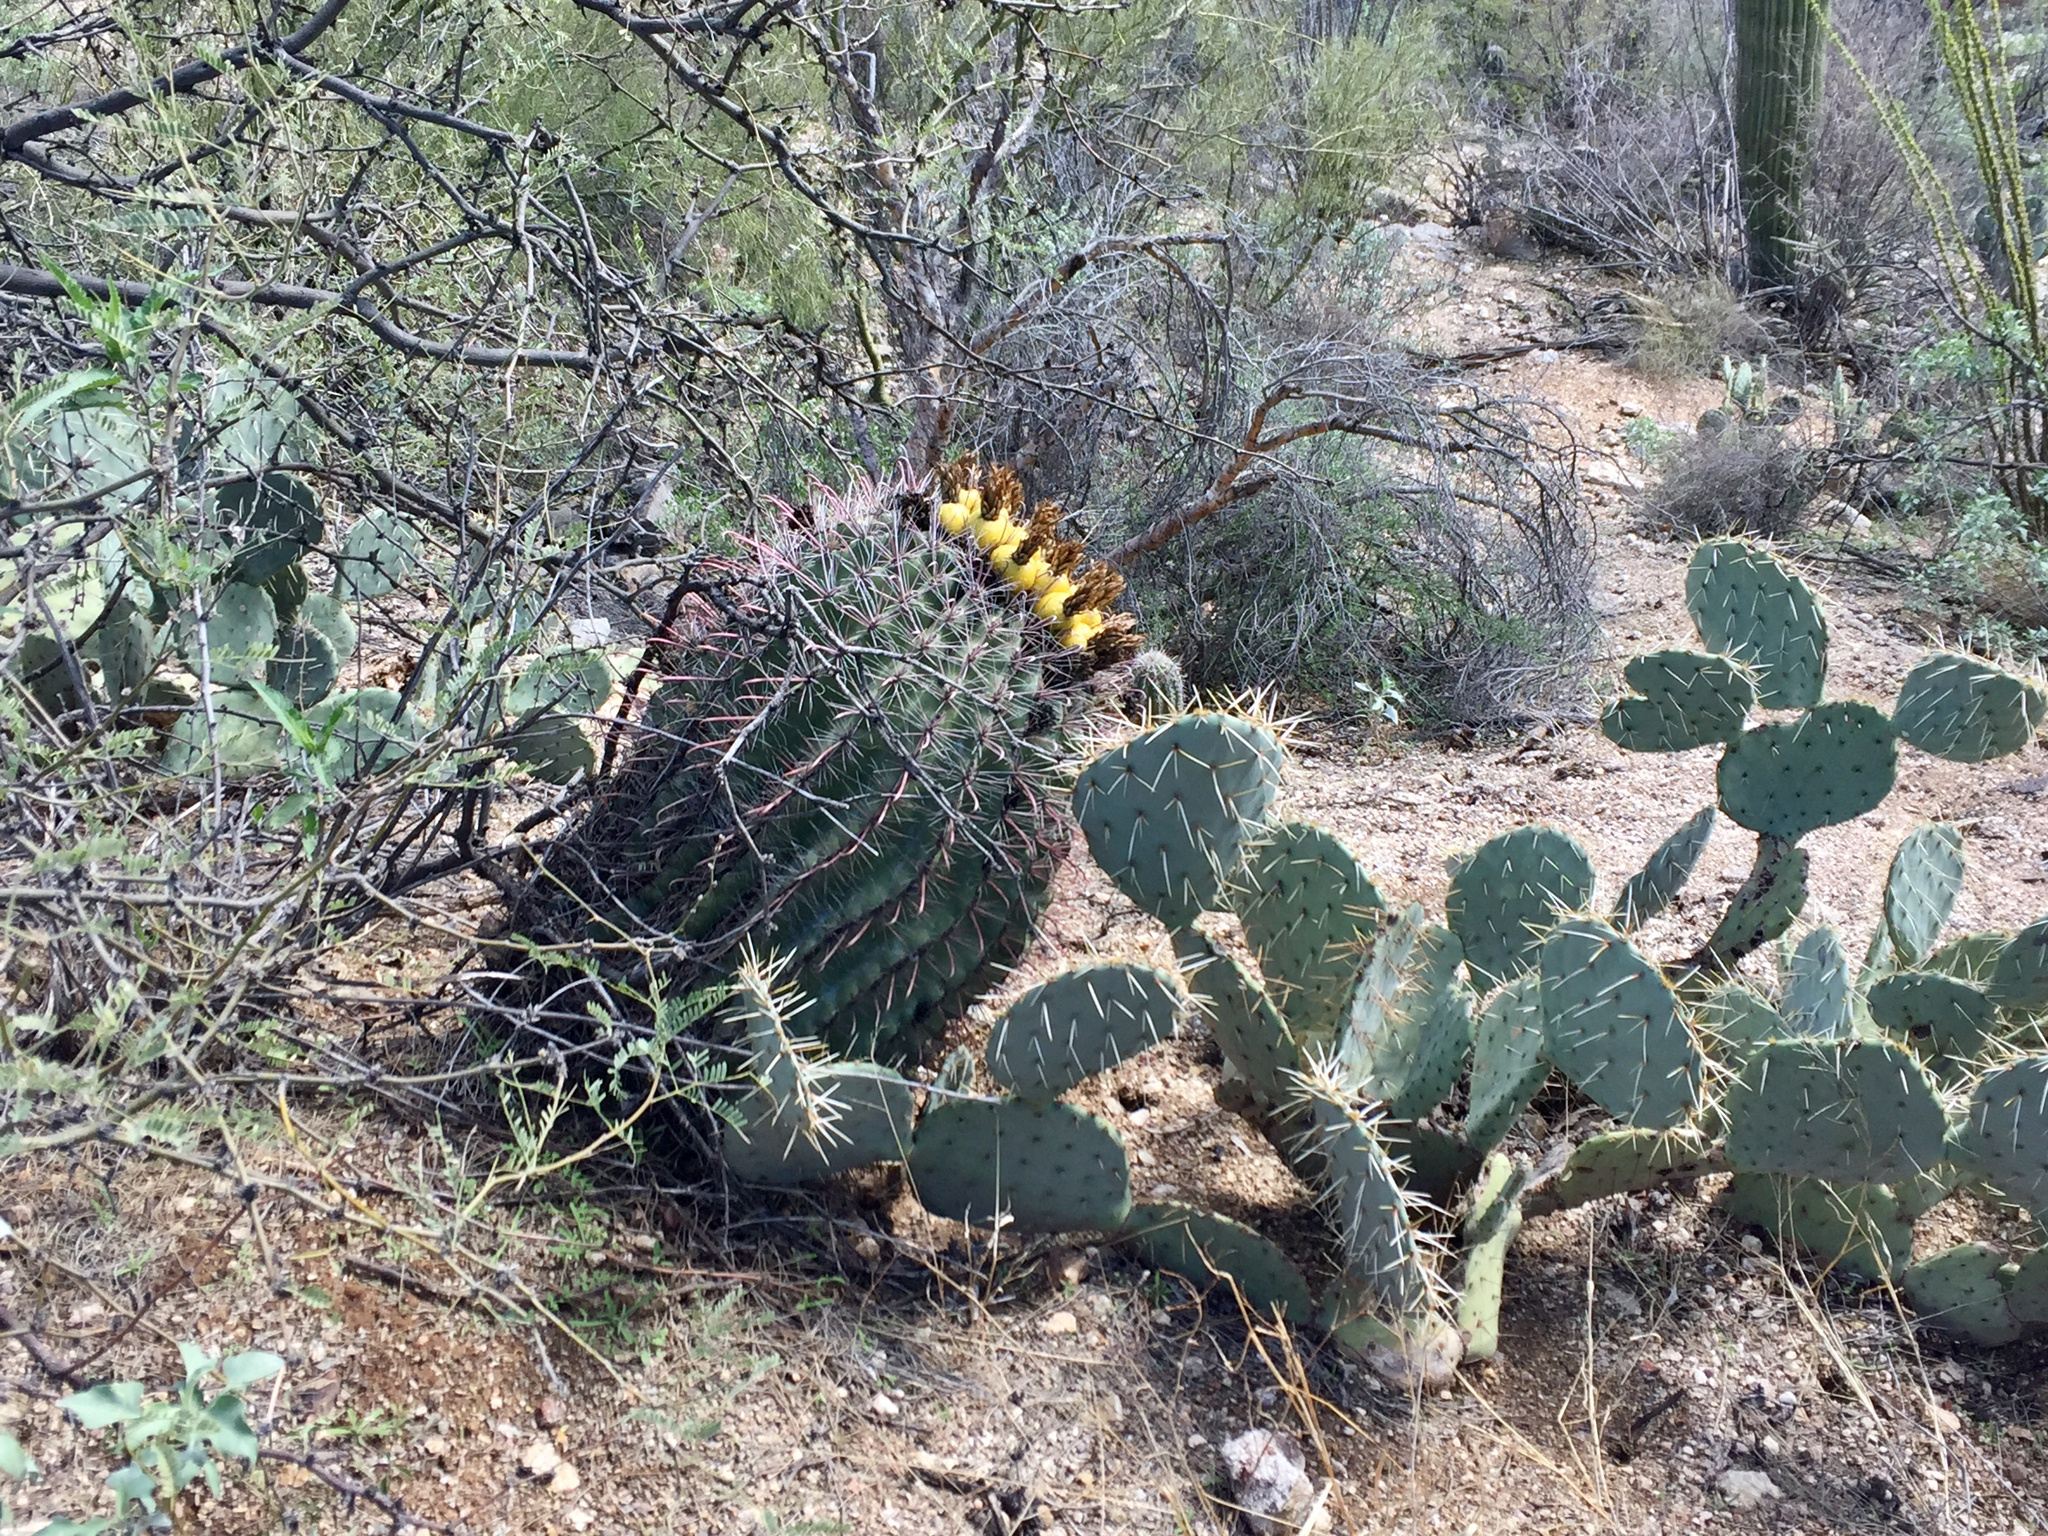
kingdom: Plantae
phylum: Tracheophyta
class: Magnoliopsida
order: Caryophyllales
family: Cactaceae
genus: Ferocactus
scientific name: Ferocactus wislizeni
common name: Candy barrel cactus
